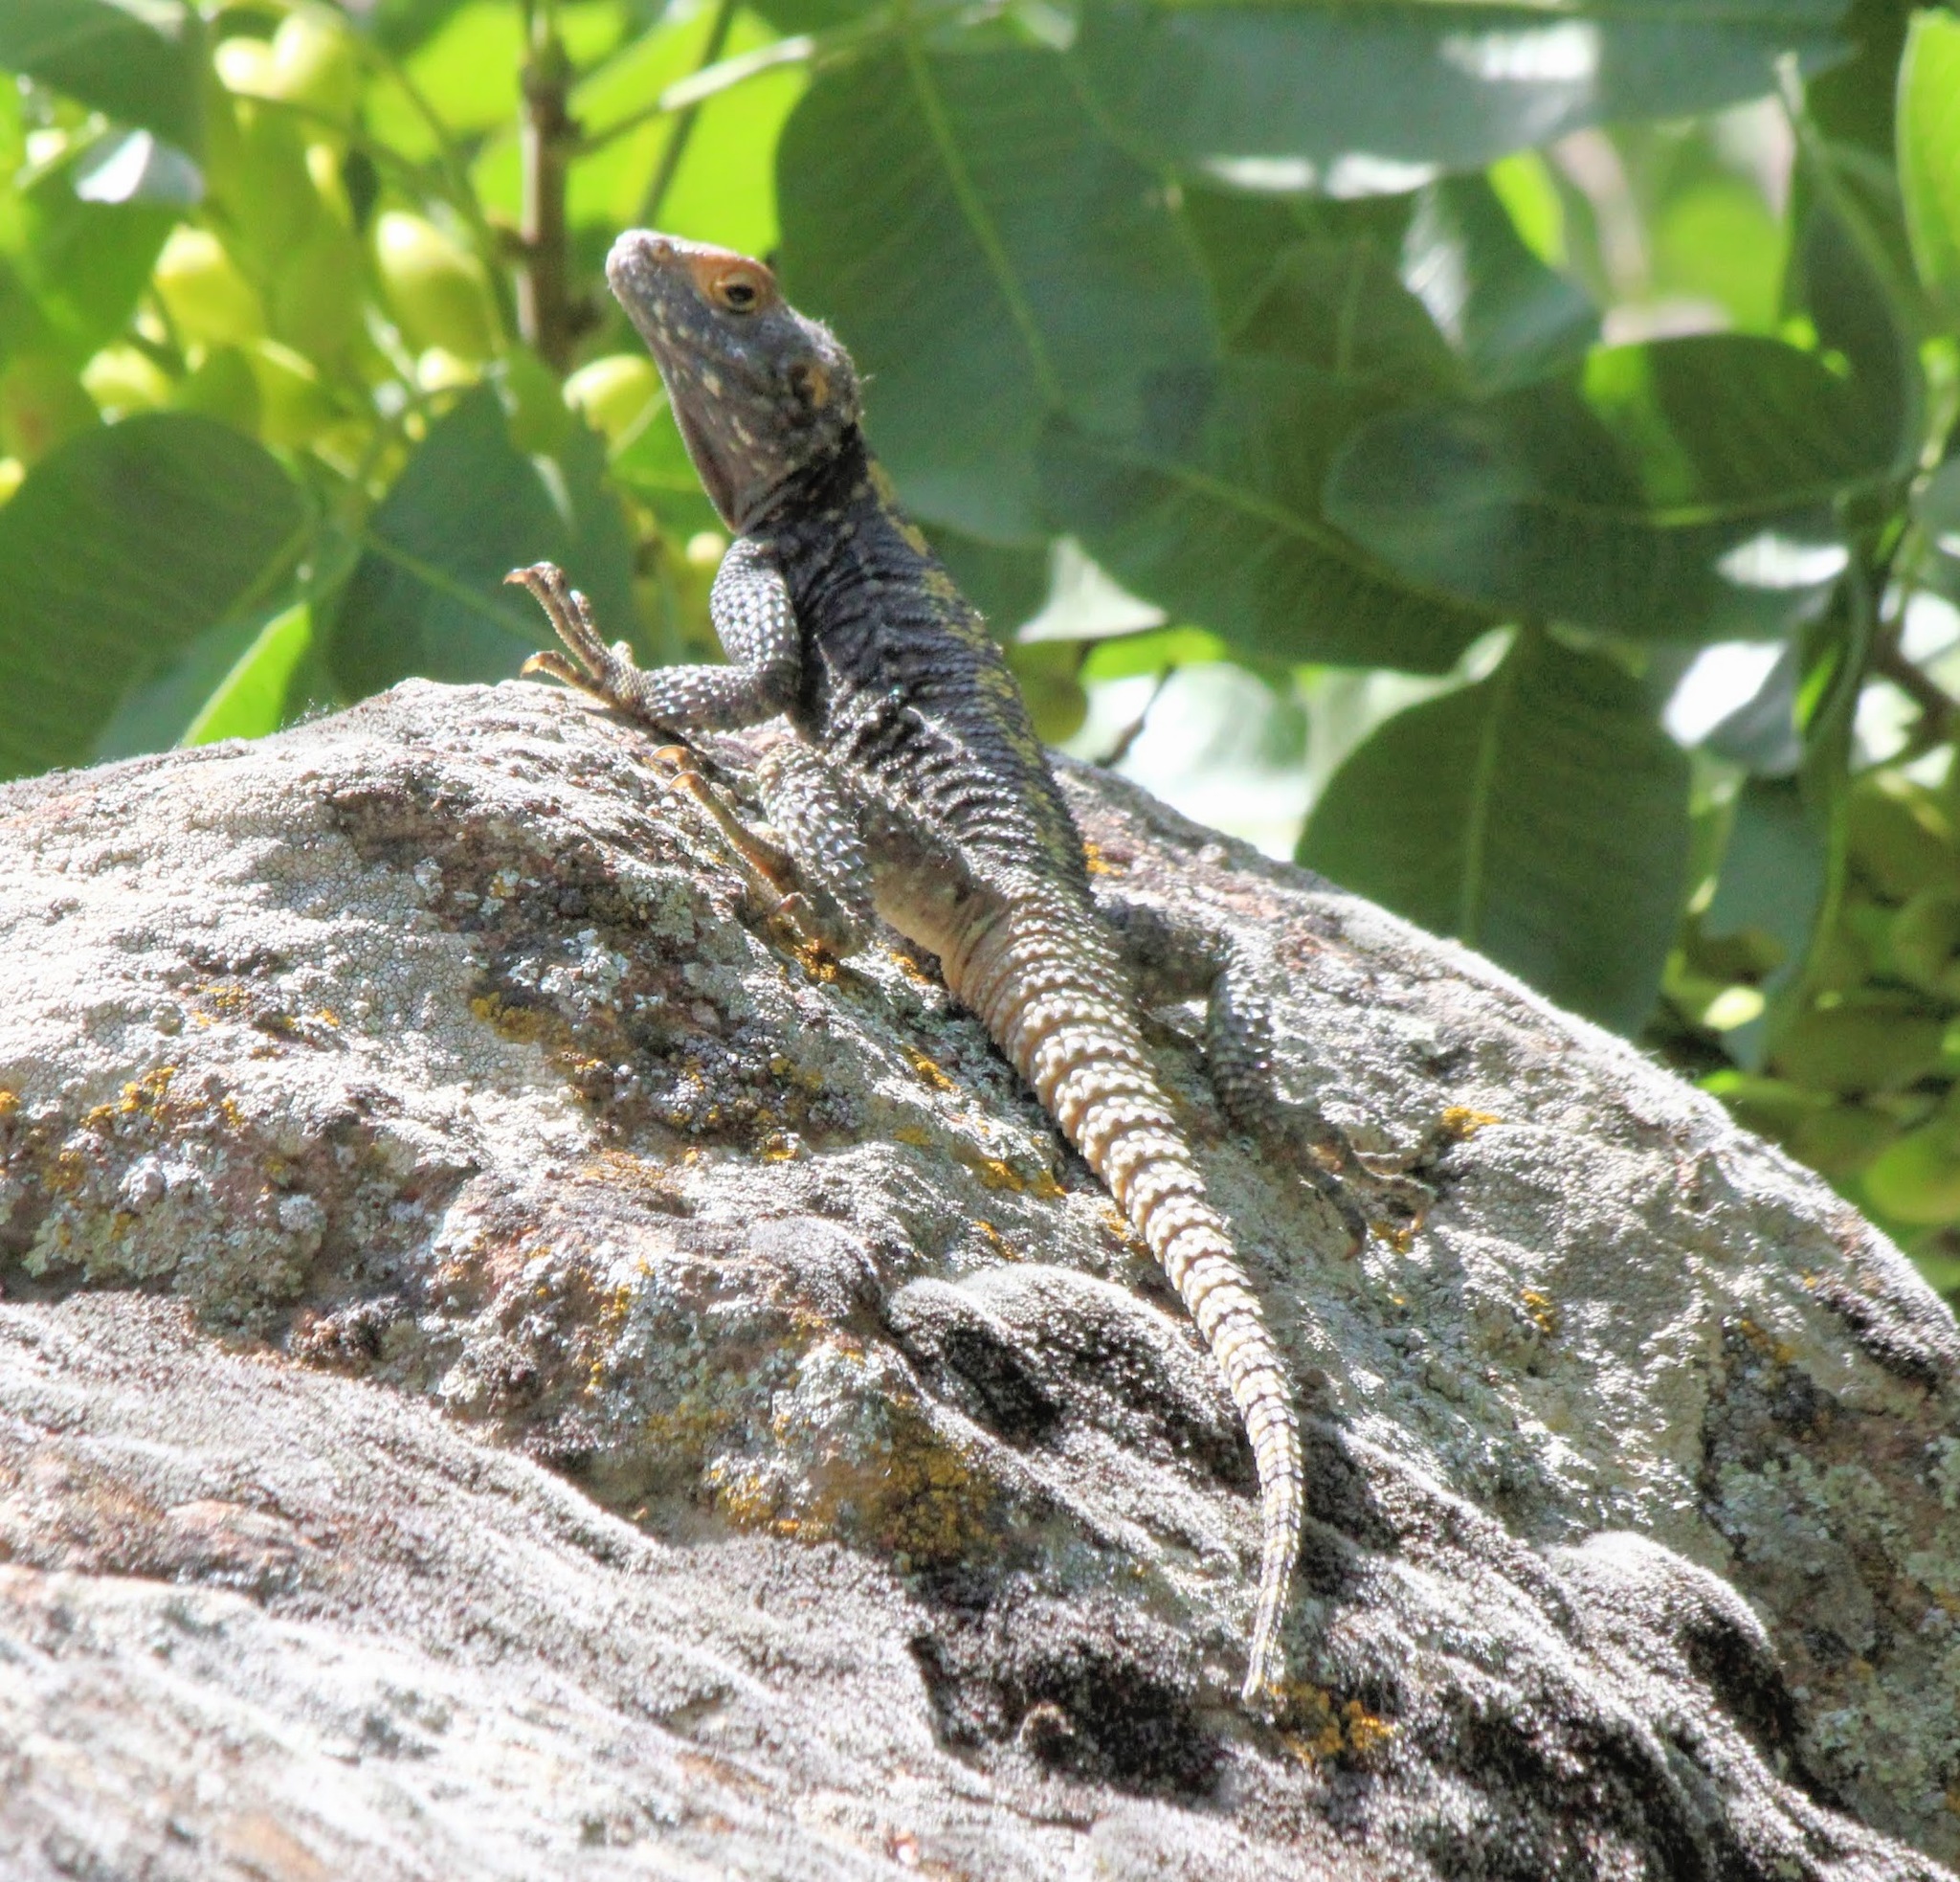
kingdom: Animalia
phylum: Chordata
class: Squamata
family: Agamidae
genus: Stellagama
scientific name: Stellagama stellio
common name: Starred agama
